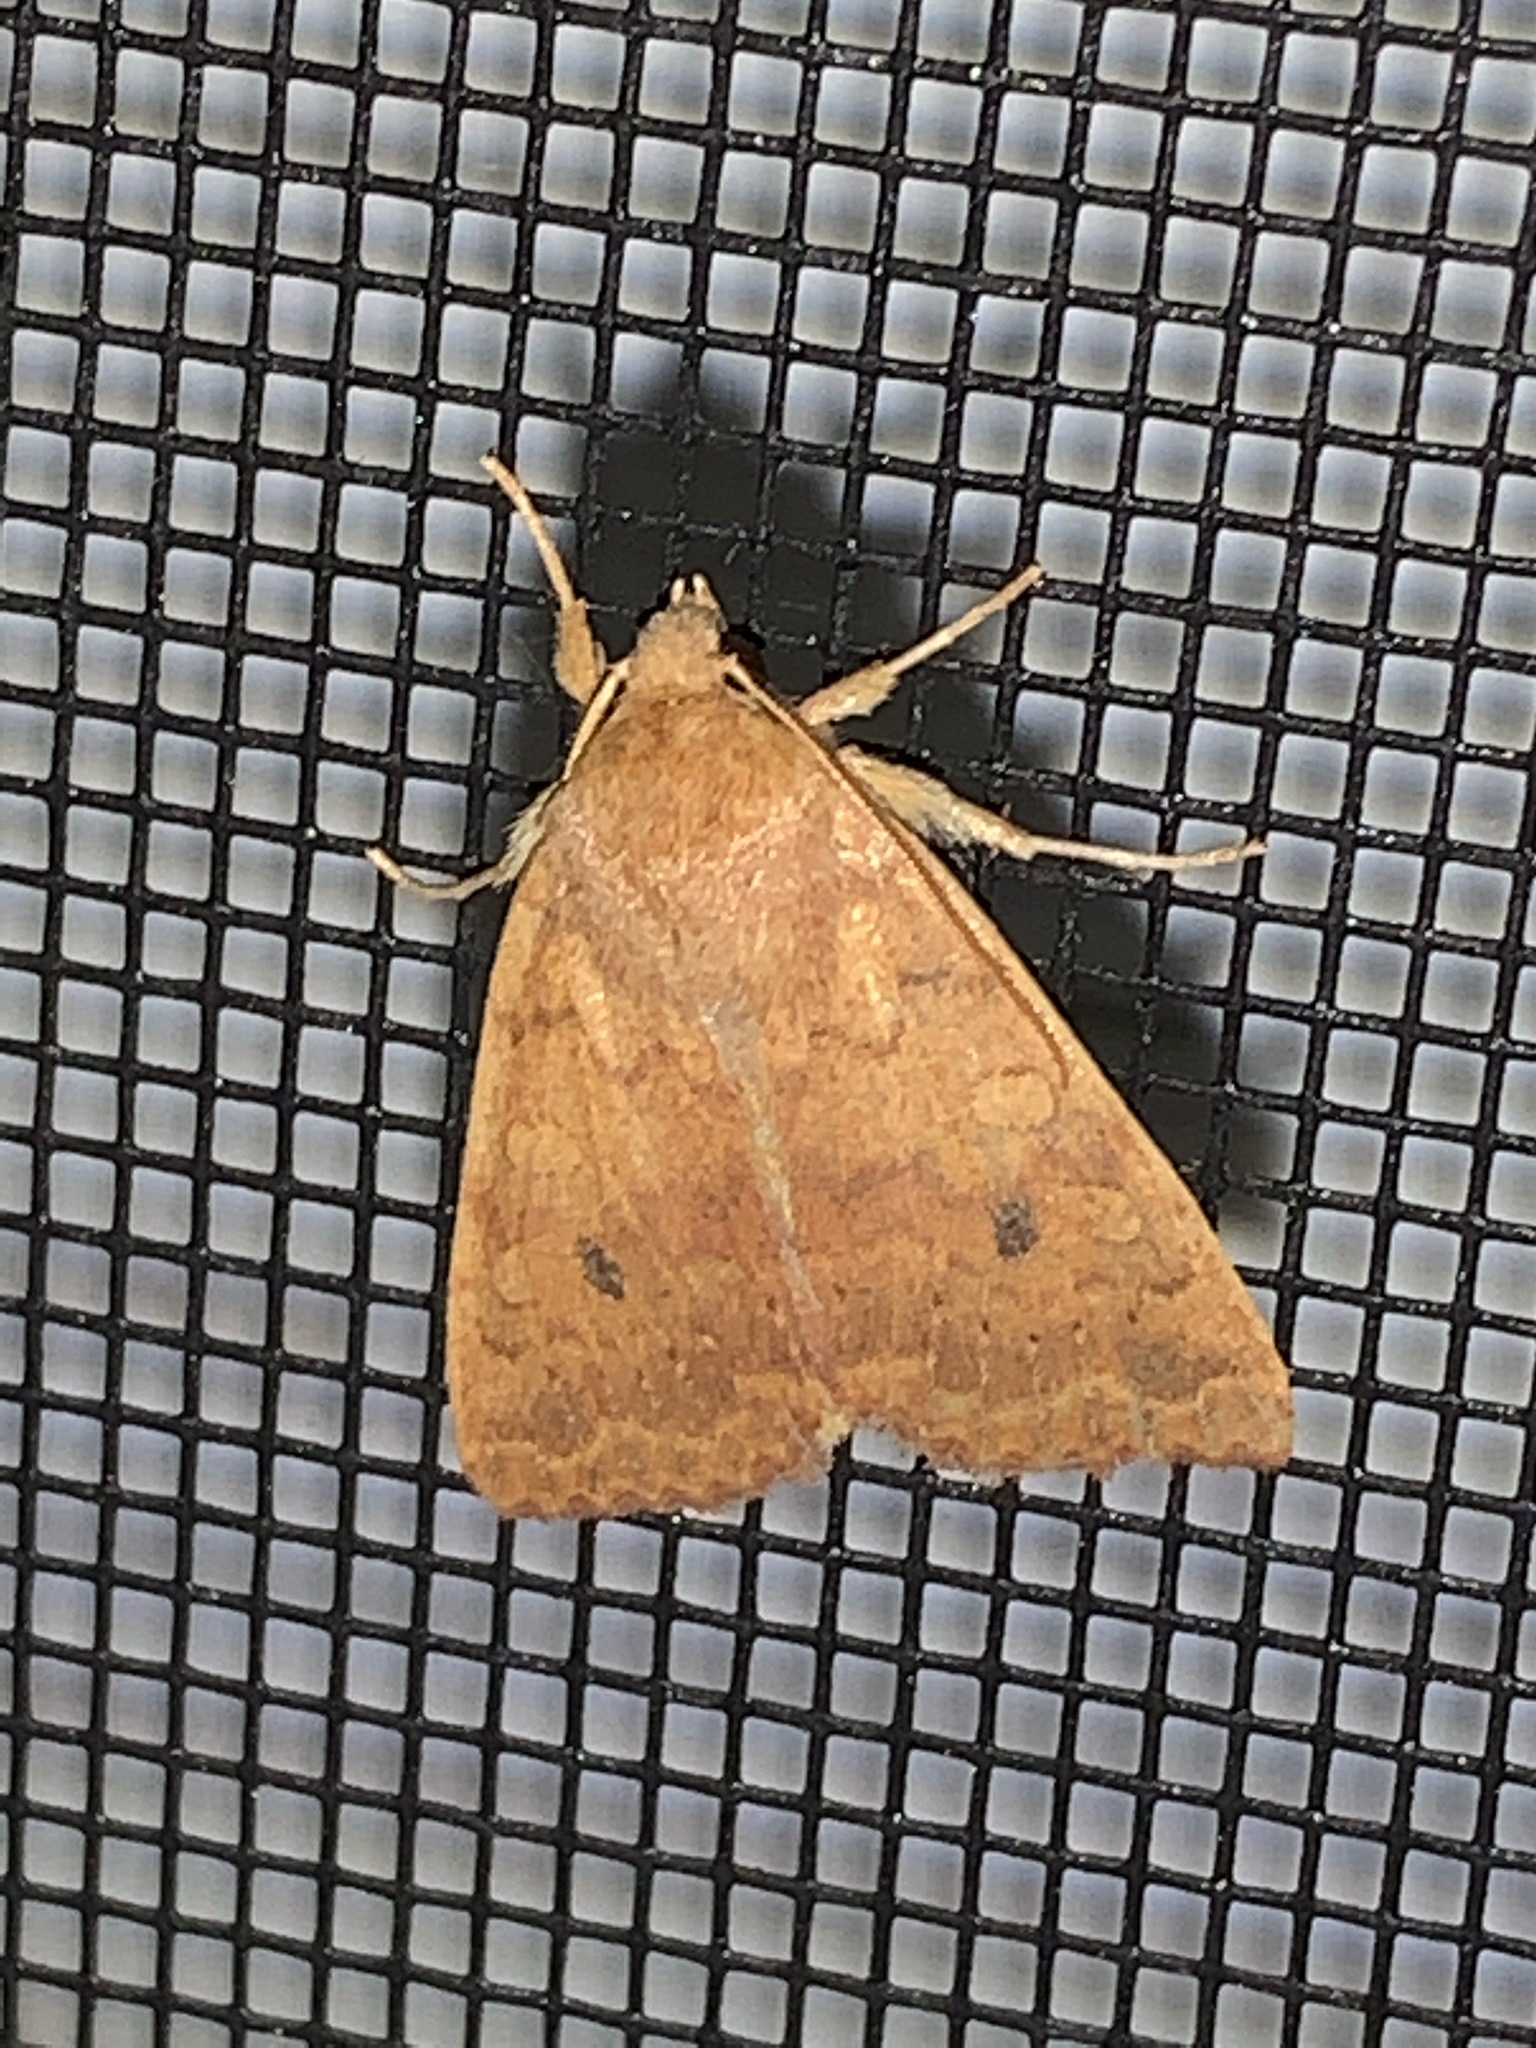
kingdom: Animalia
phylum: Arthropoda
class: Insecta
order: Lepidoptera
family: Noctuidae
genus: Agrochola
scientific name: Agrochola bicolorago
